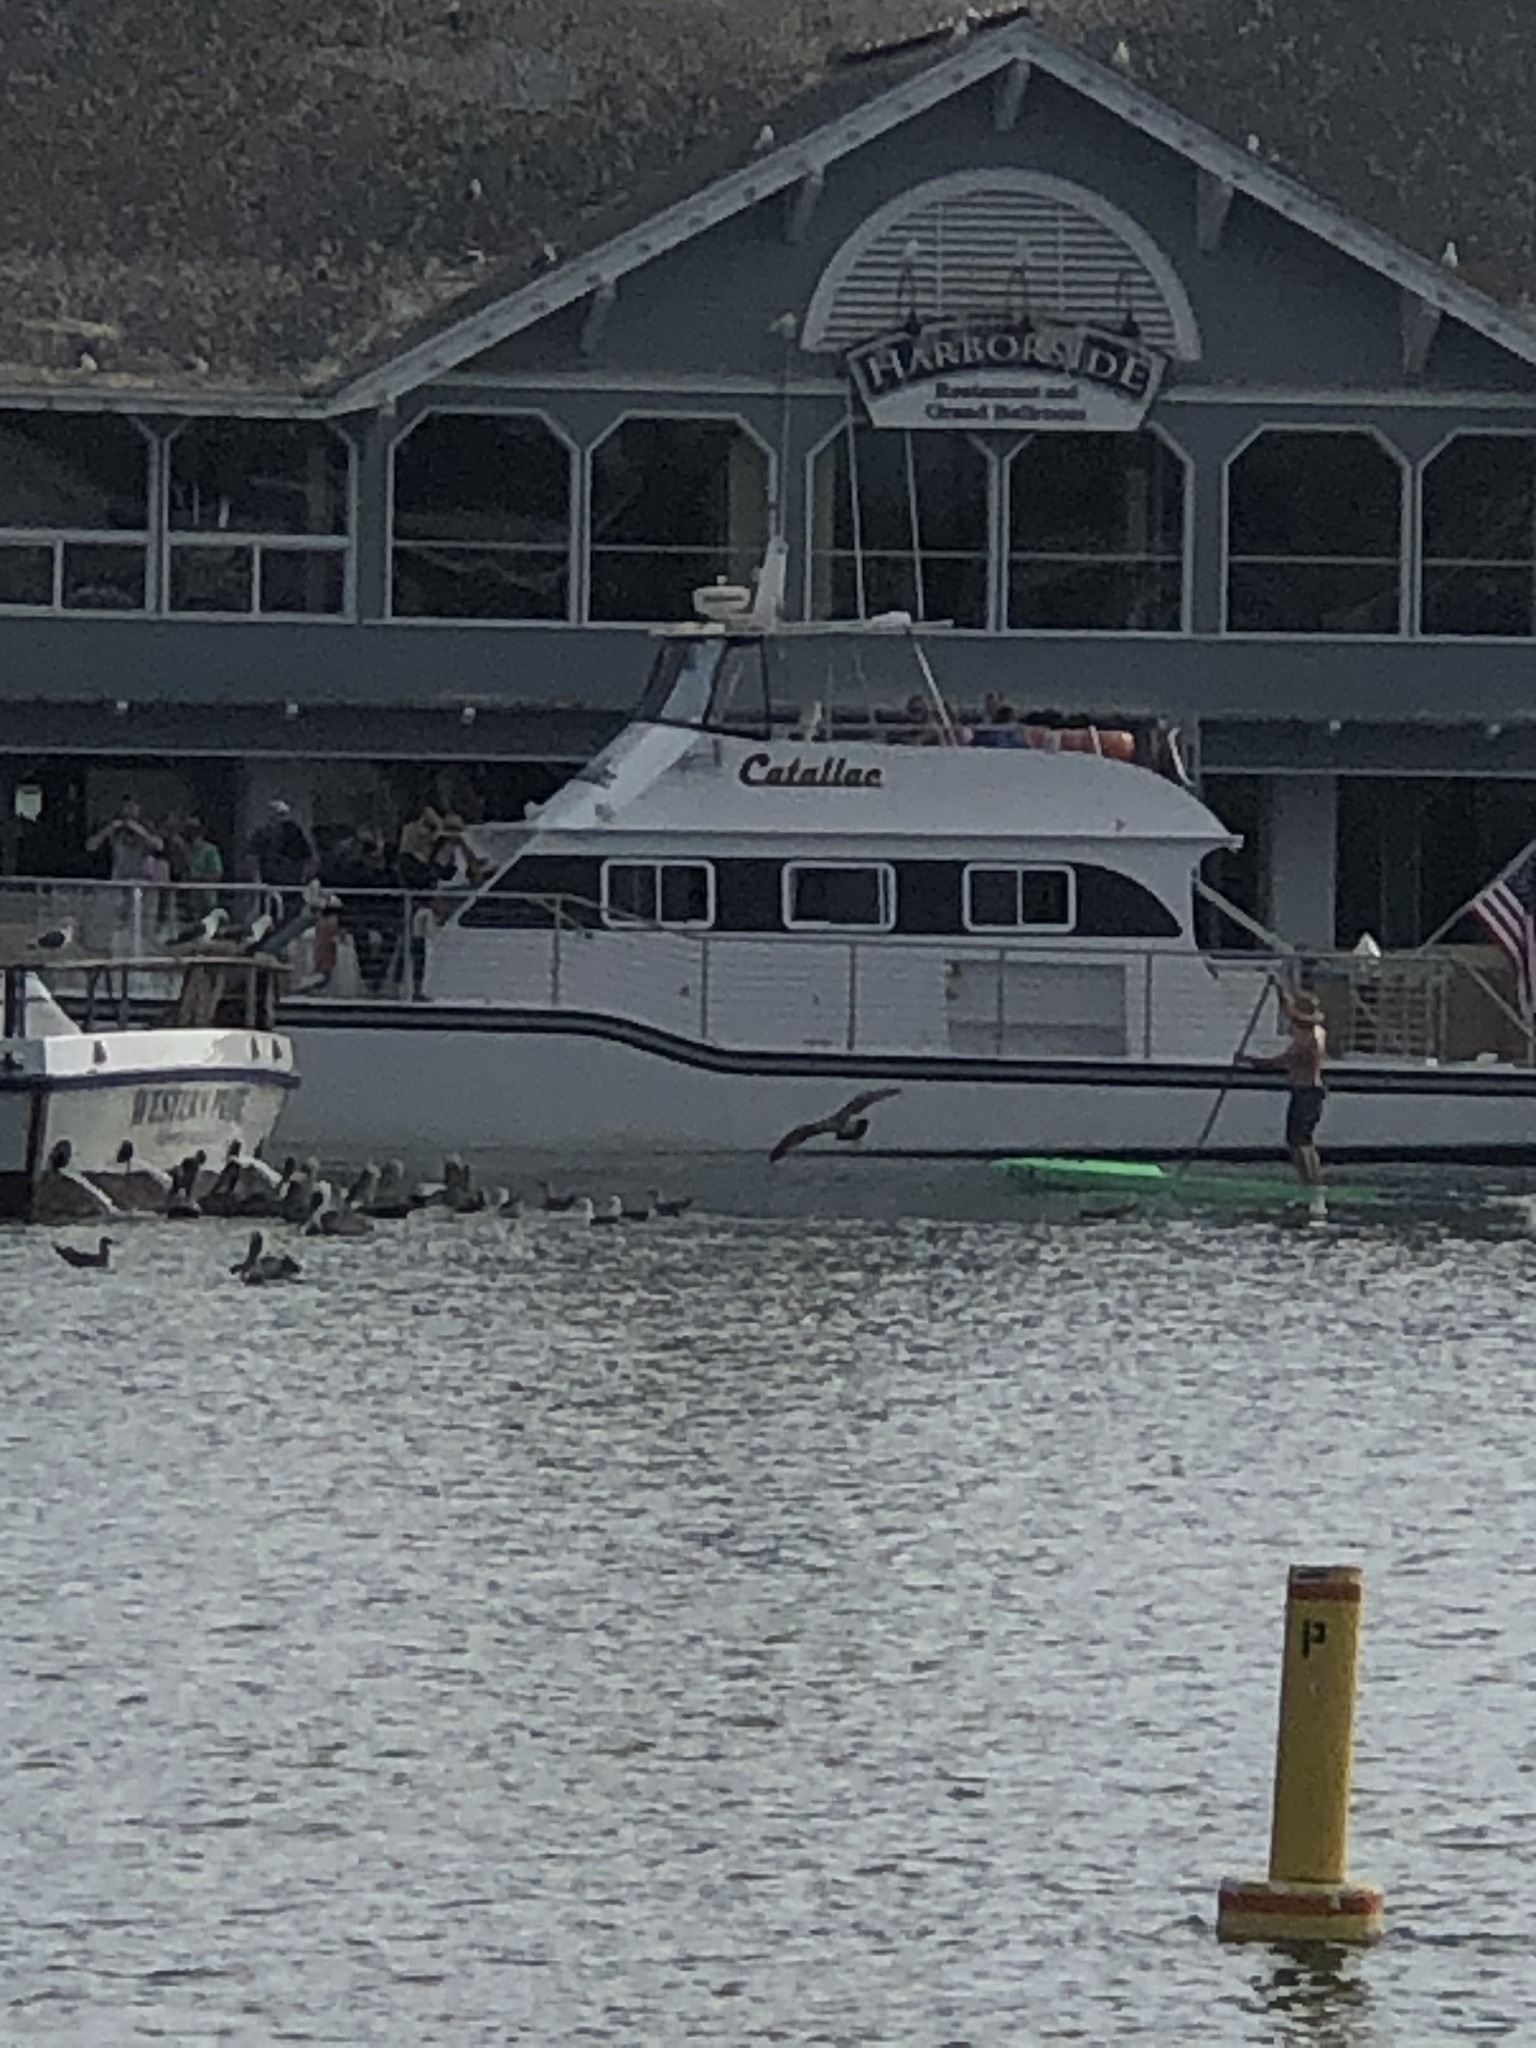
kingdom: Animalia
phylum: Chordata
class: Aves
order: Pelecaniformes
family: Pelecanidae
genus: Pelecanus
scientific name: Pelecanus occidentalis
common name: Brown pelican
